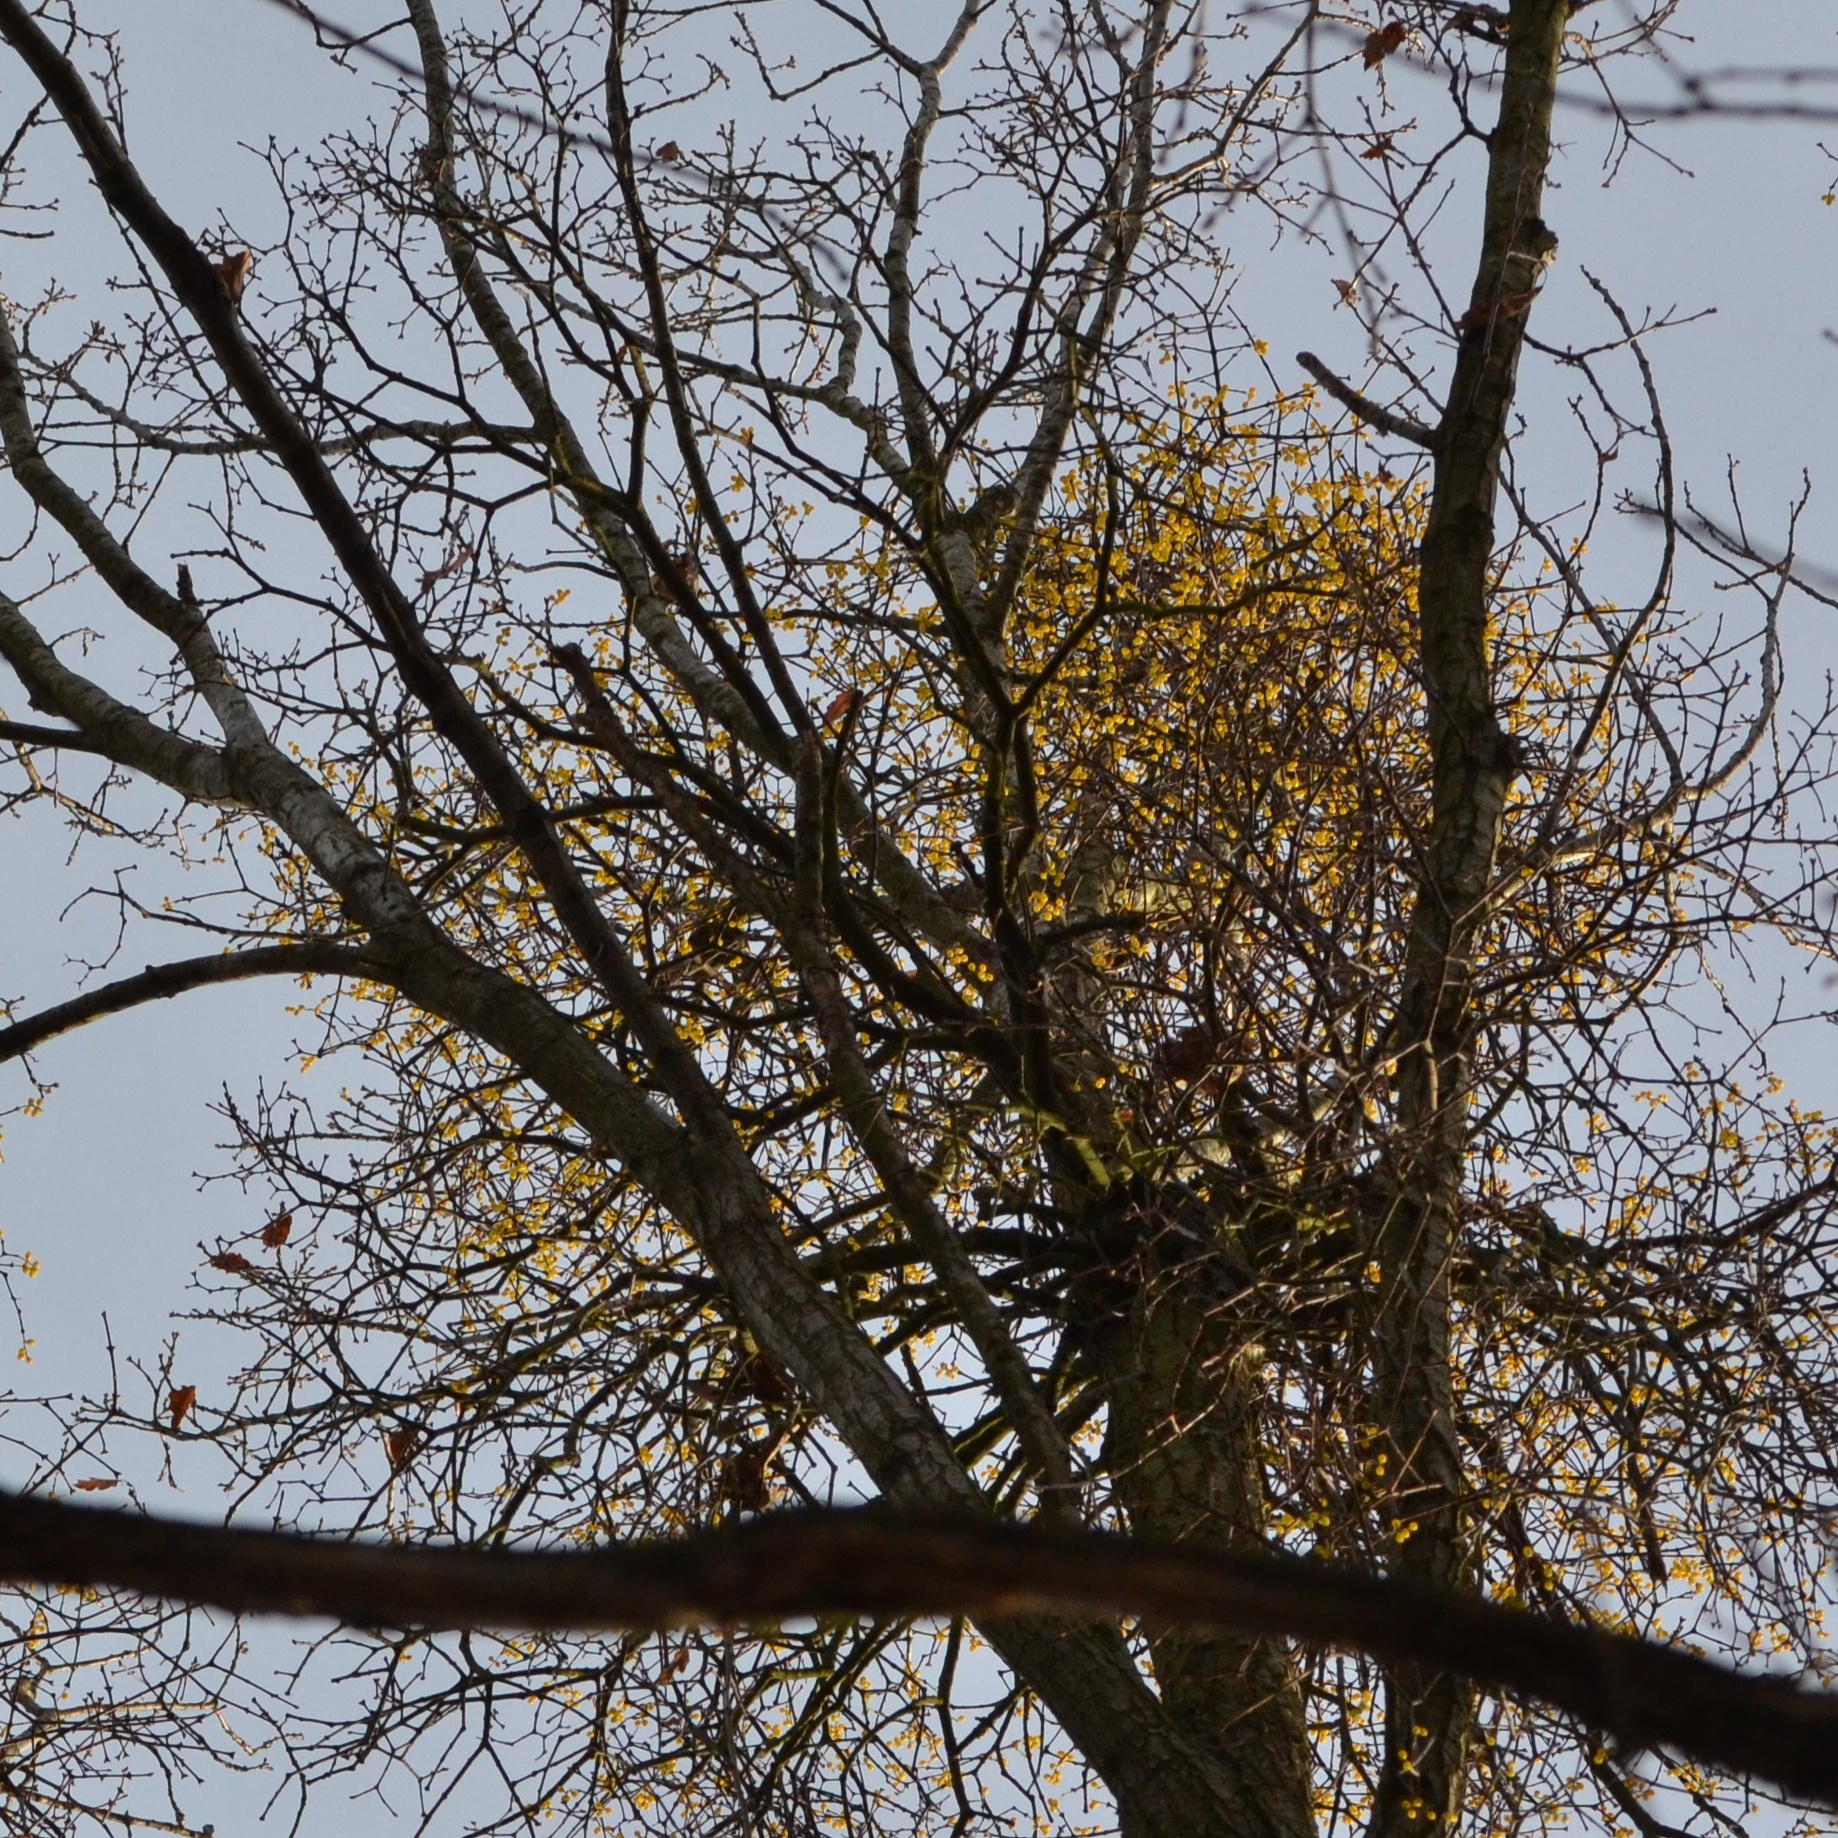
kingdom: Plantae
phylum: Tracheophyta
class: Magnoliopsida
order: Santalales
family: Loranthaceae
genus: Loranthus
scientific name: Loranthus europaeus
